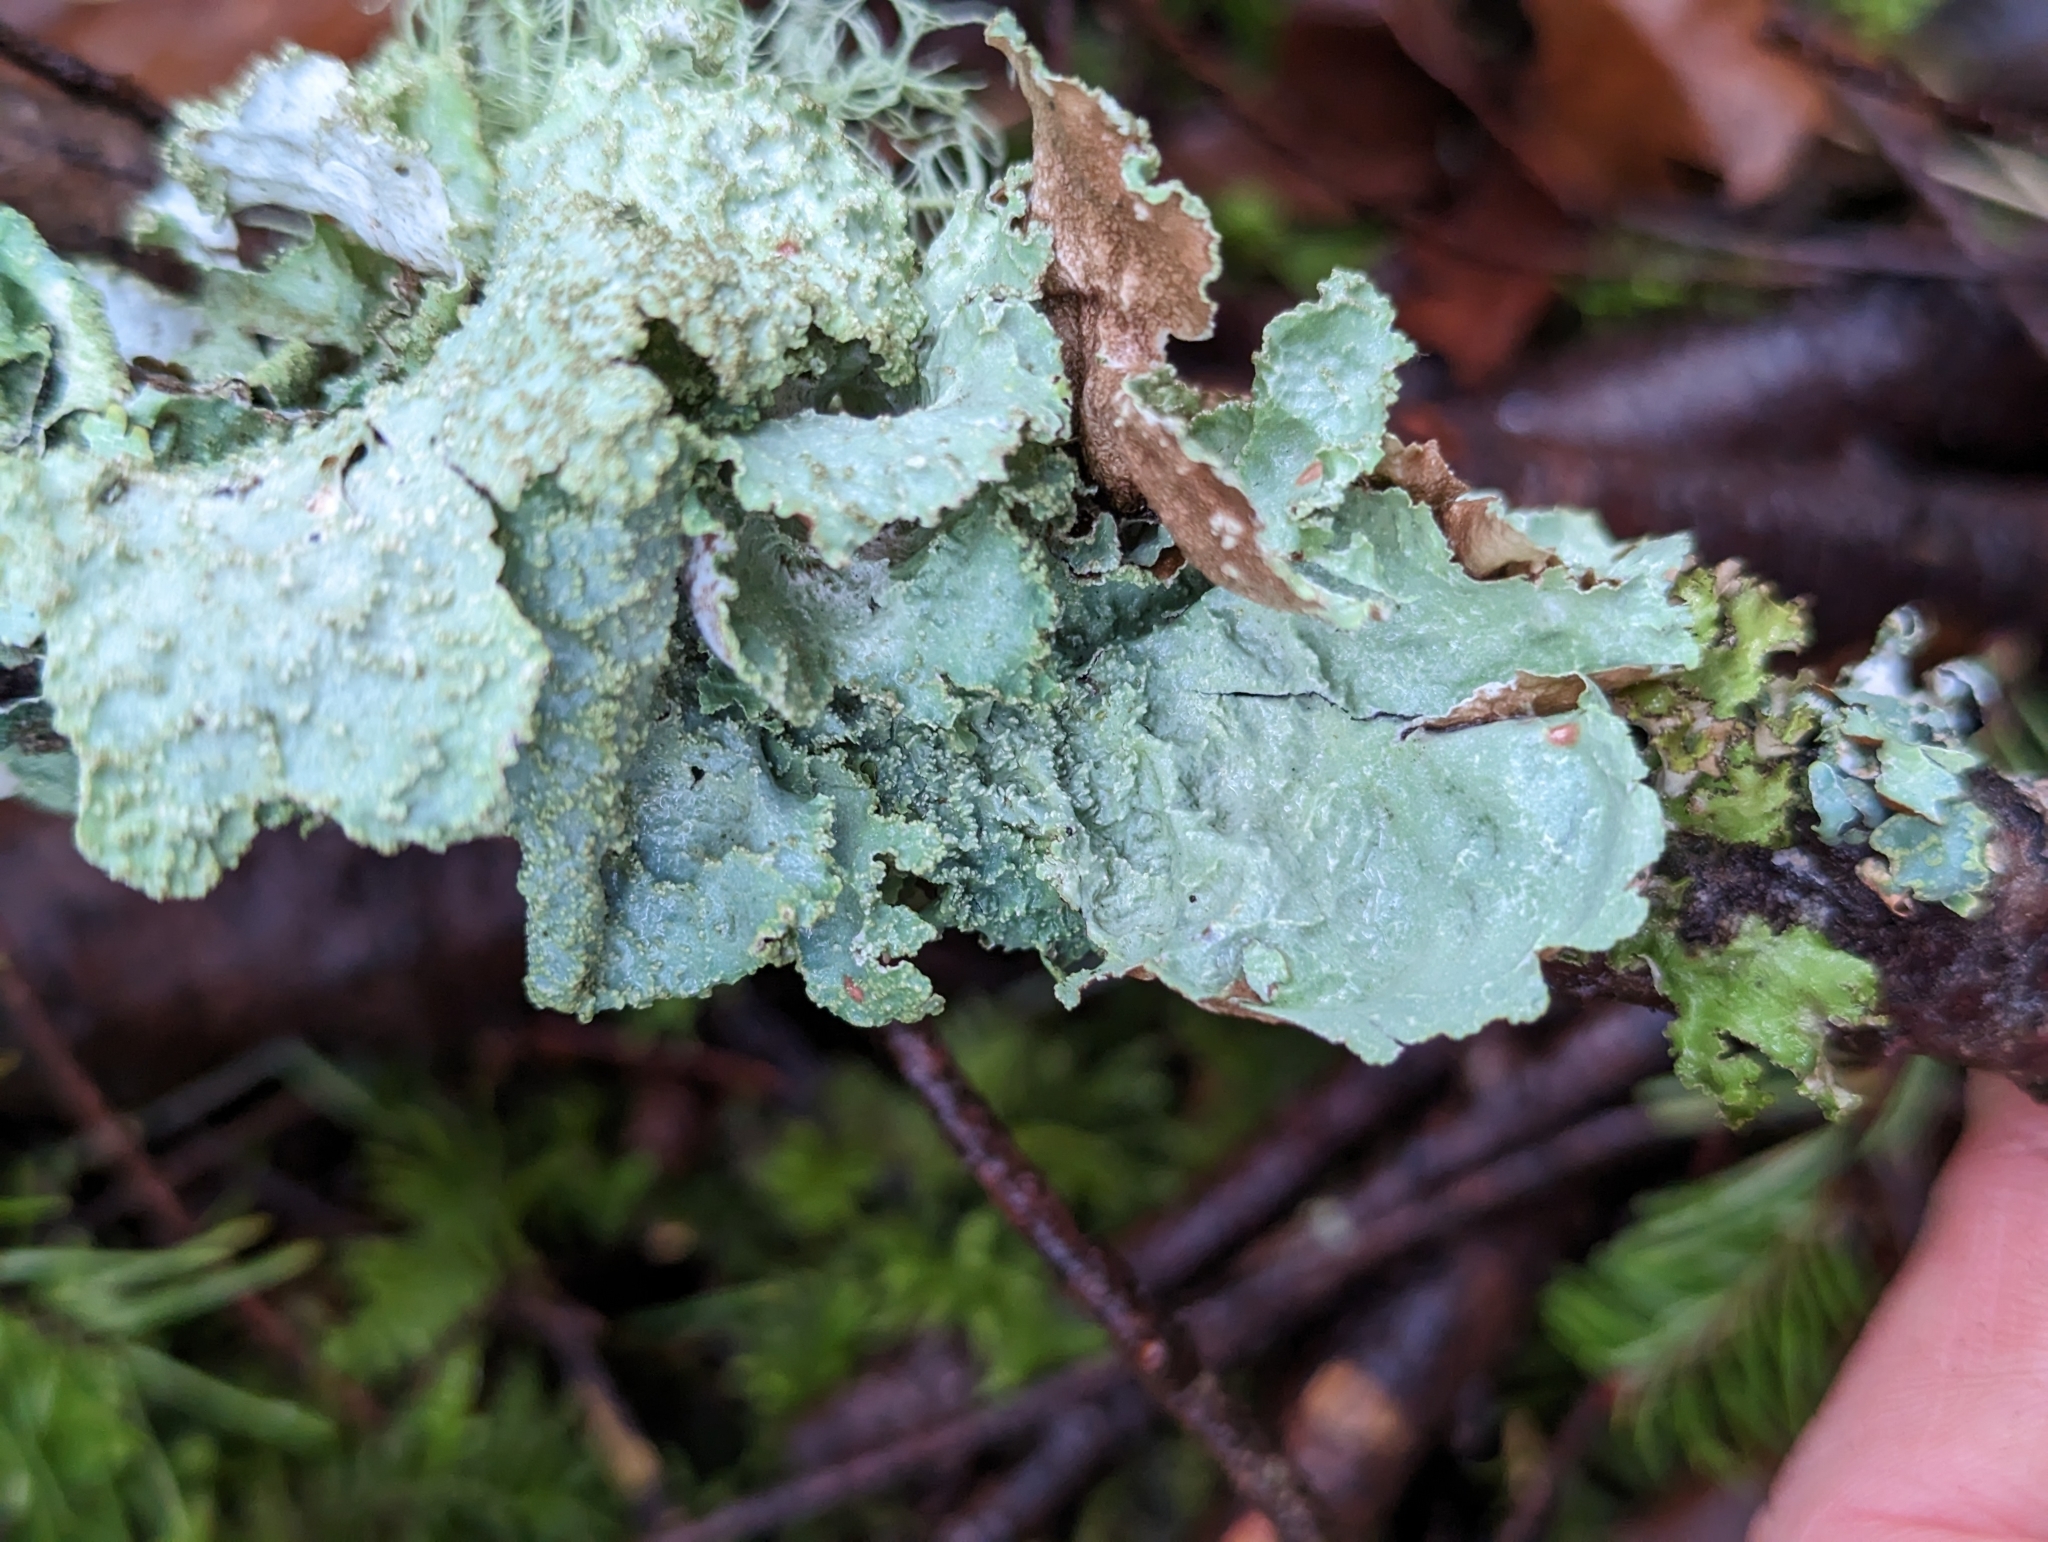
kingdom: Fungi
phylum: Ascomycota
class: Lecanoromycetes
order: Lecanorales
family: Parmeliaceae
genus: Platismatia
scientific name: Platismatia glauca
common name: Varied rag lichen
